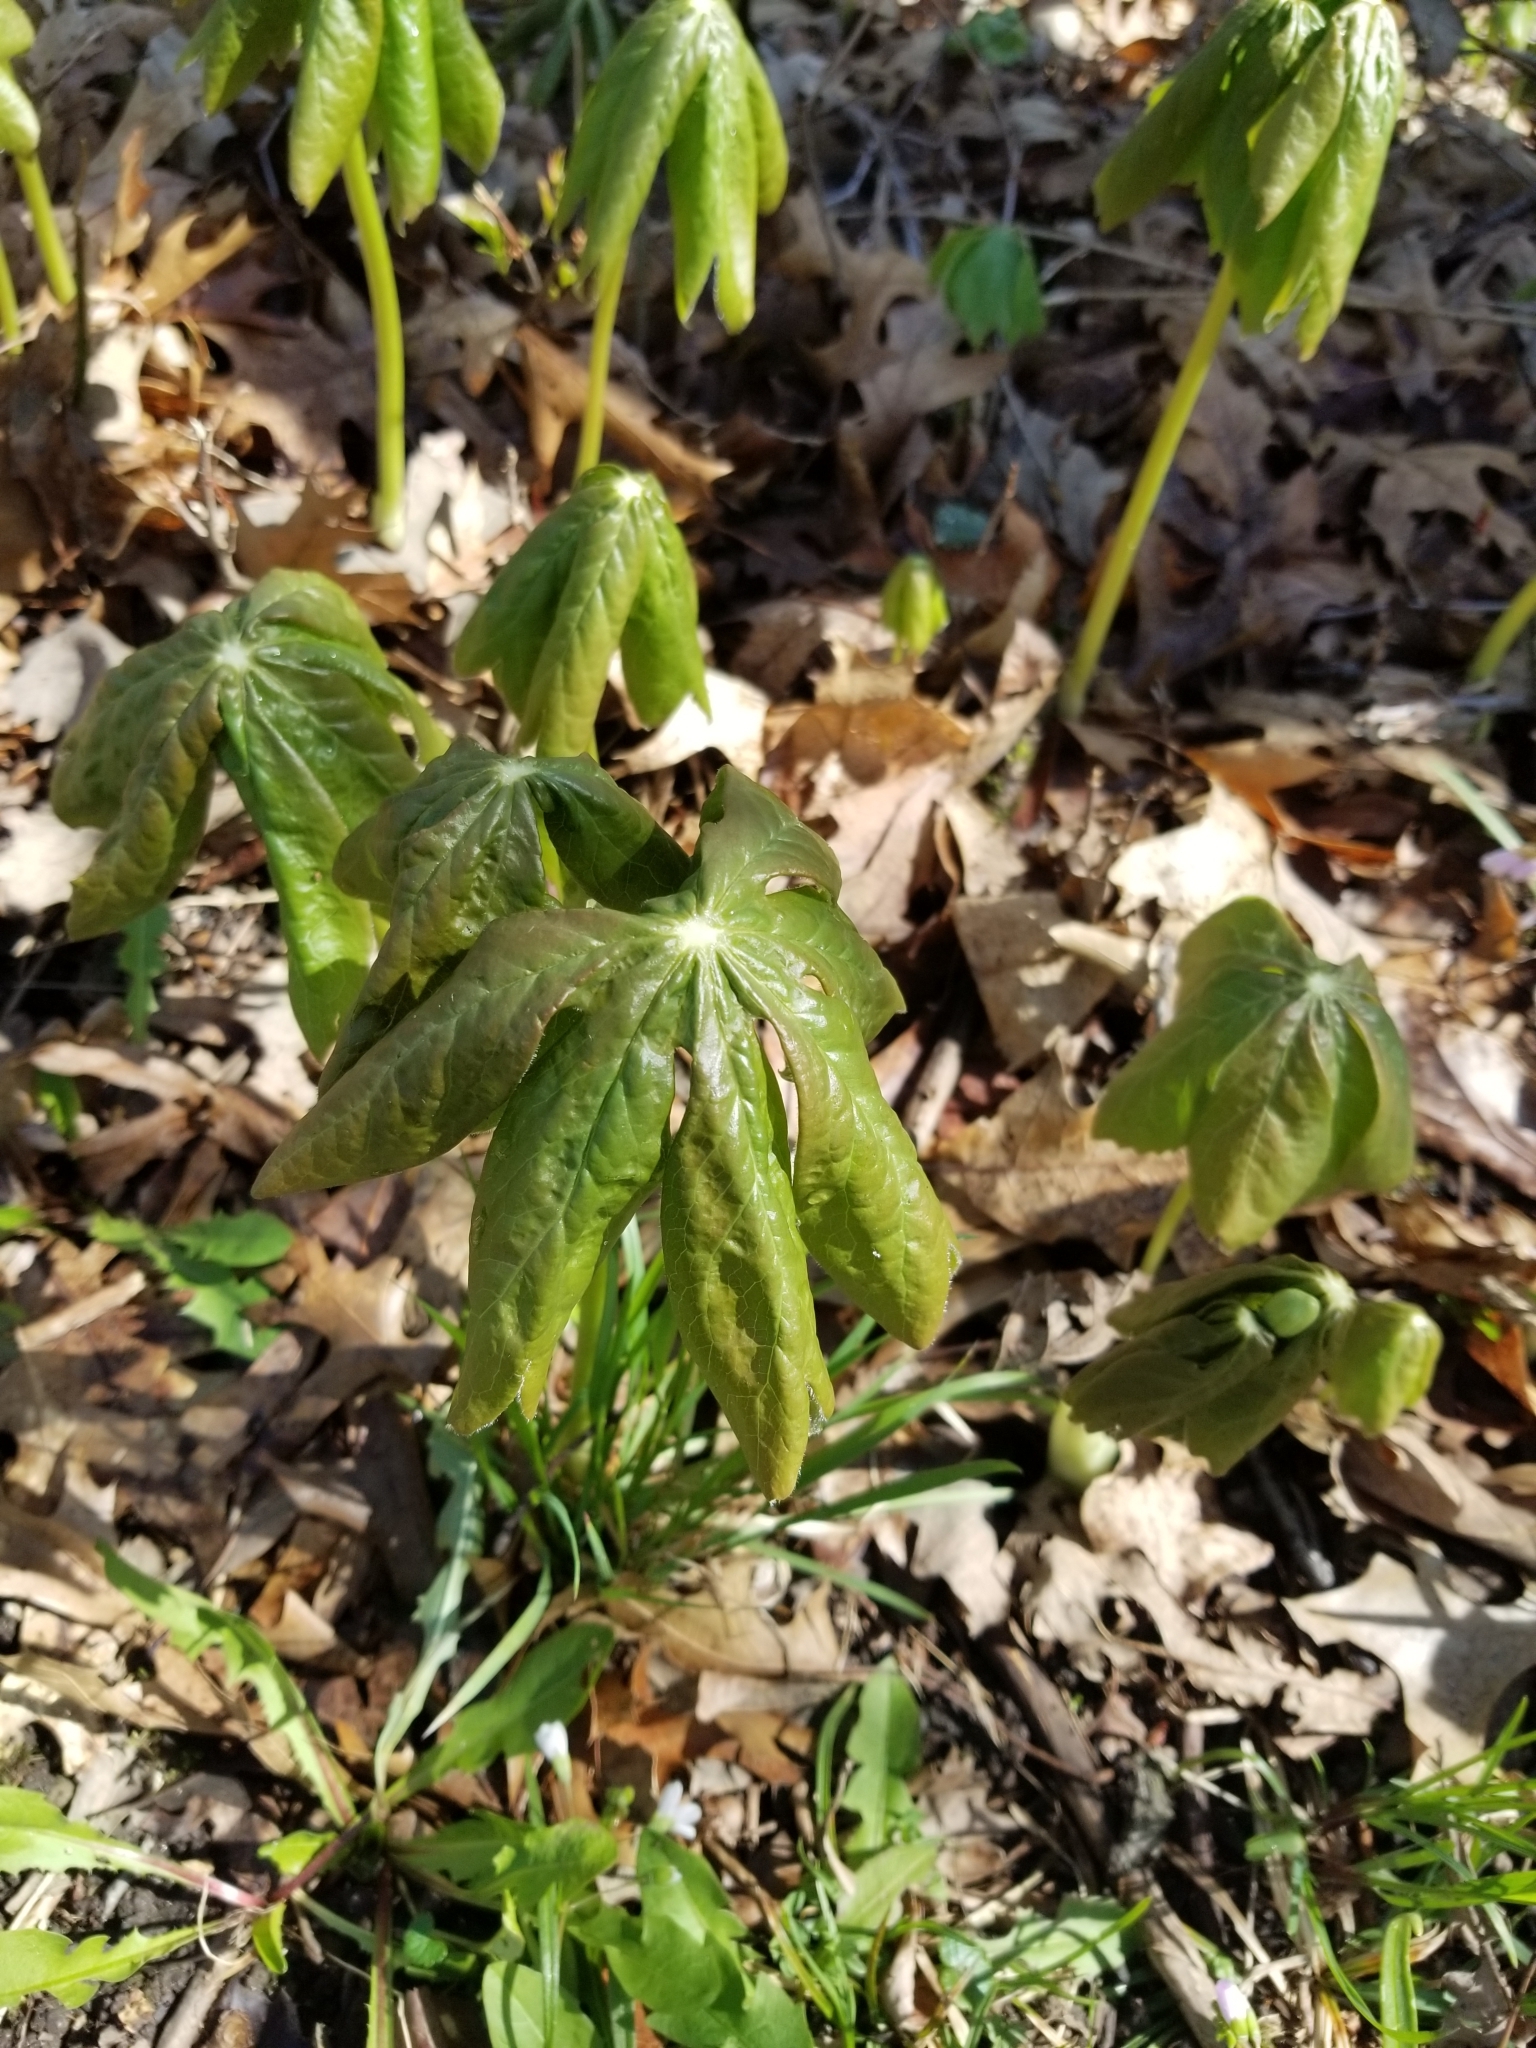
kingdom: Plantae
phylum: Tracheophyta
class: Magnoliopsida
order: Ranunculales
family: Berberidaceae
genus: Podophyllum
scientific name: Podophyllum peltatum
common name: Wild mandrake
